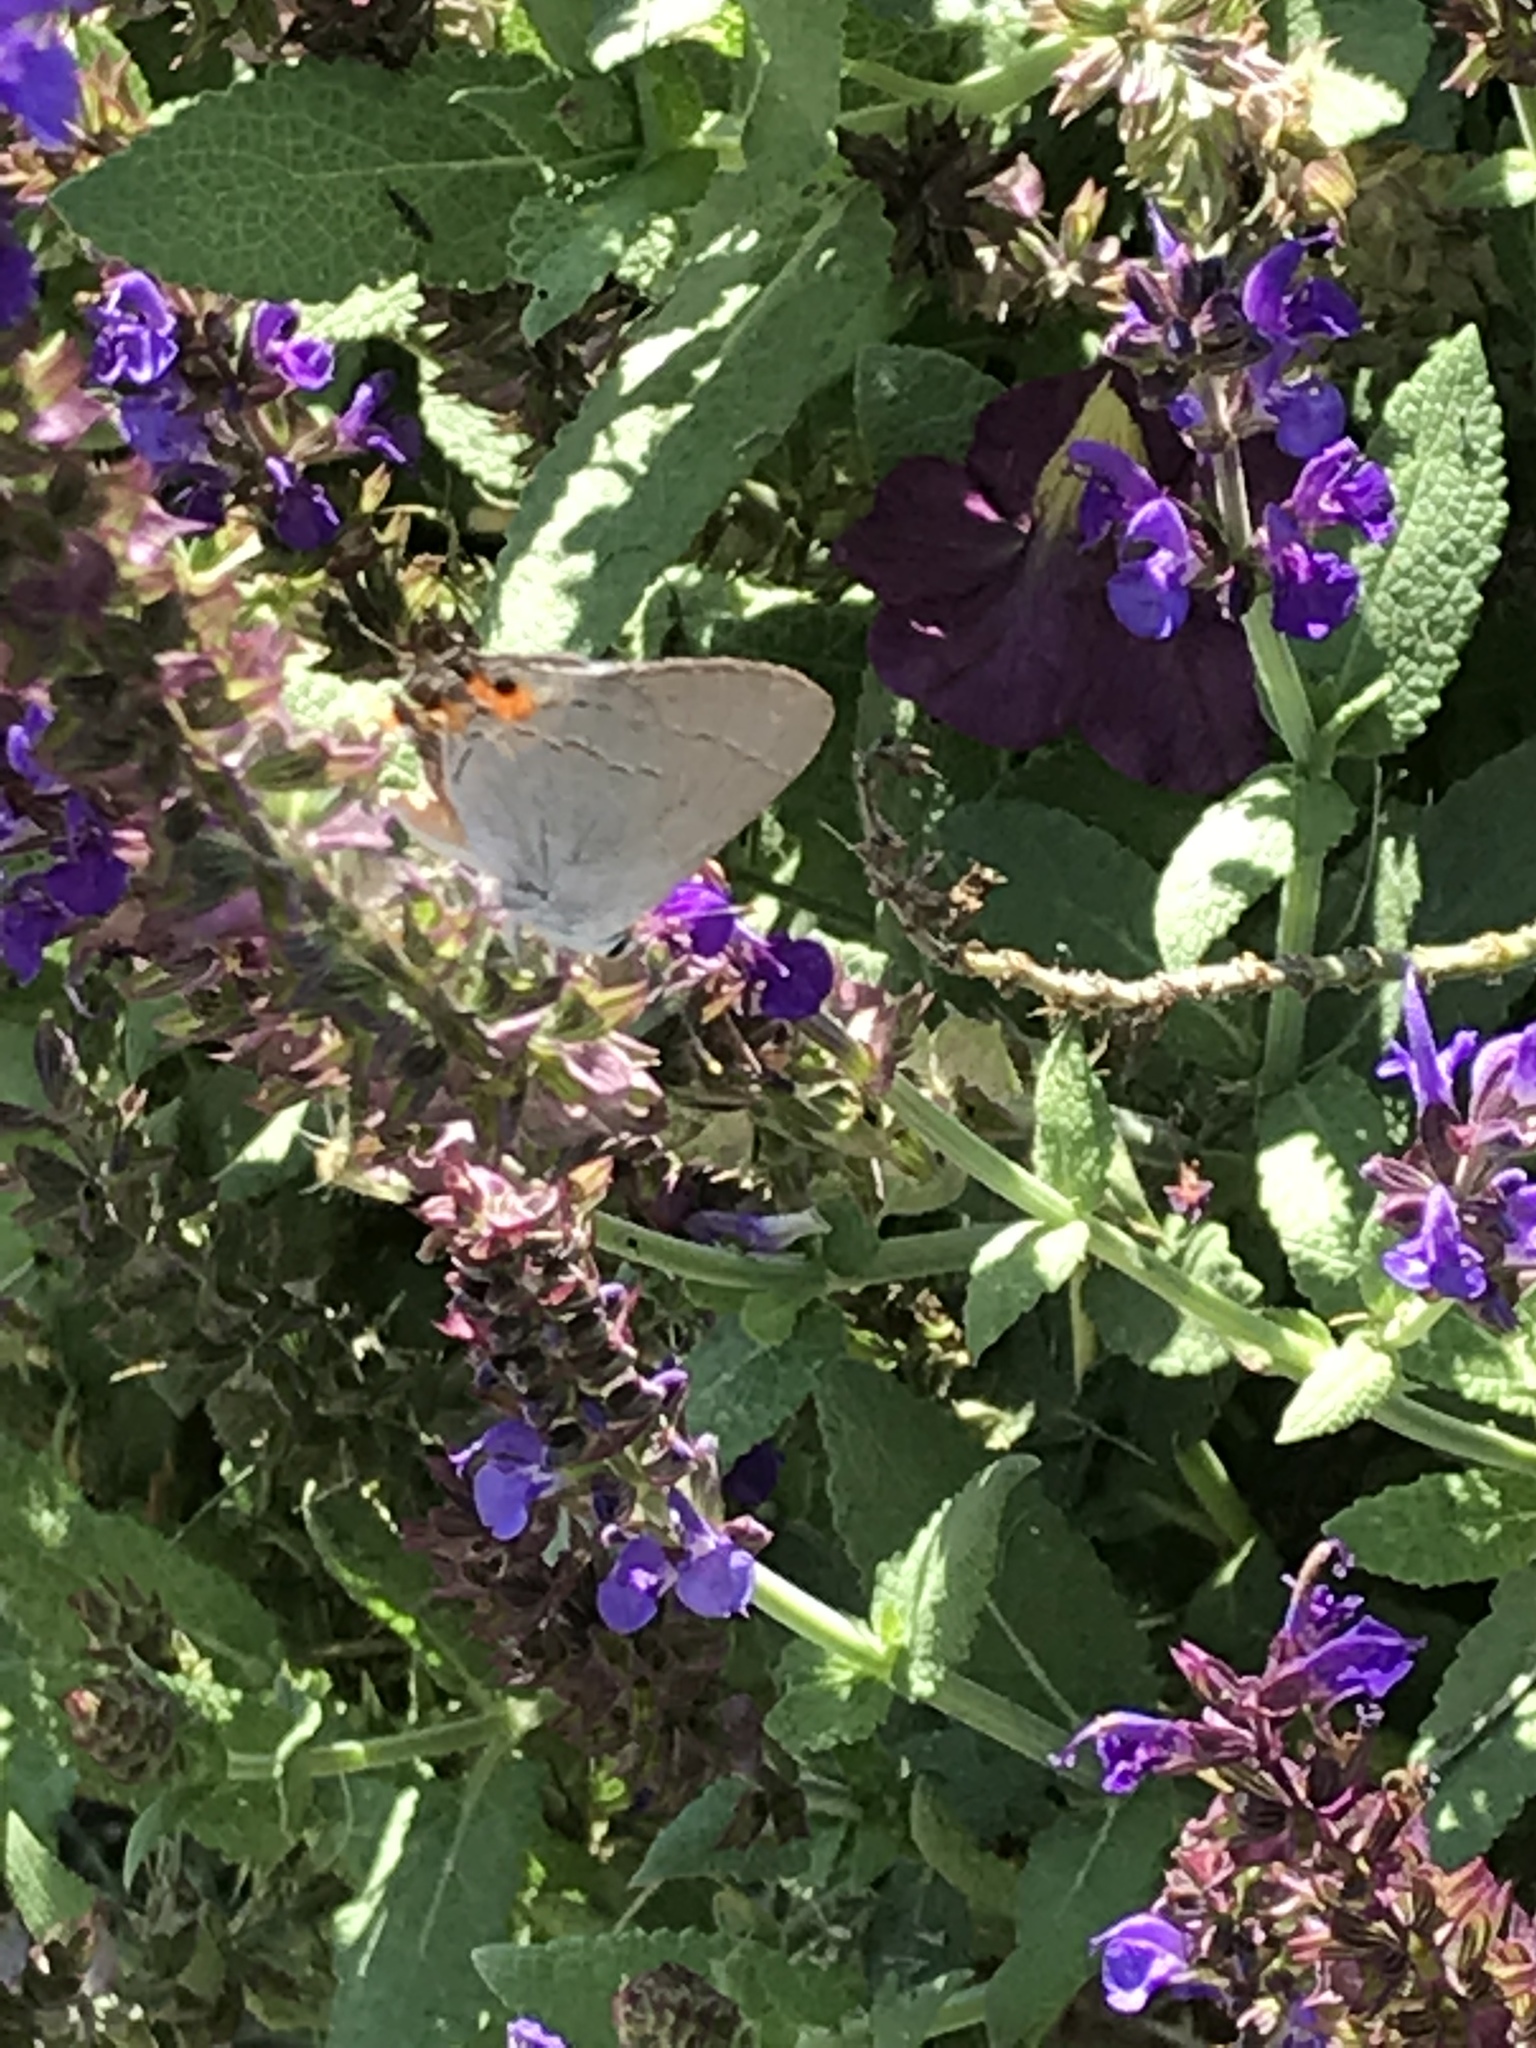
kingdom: Animalia
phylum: Arthropoda
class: Insecta
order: Lepidoptera
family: Lycaenidae
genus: Strymon
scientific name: Strymon melinus
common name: Gray hairstreak
